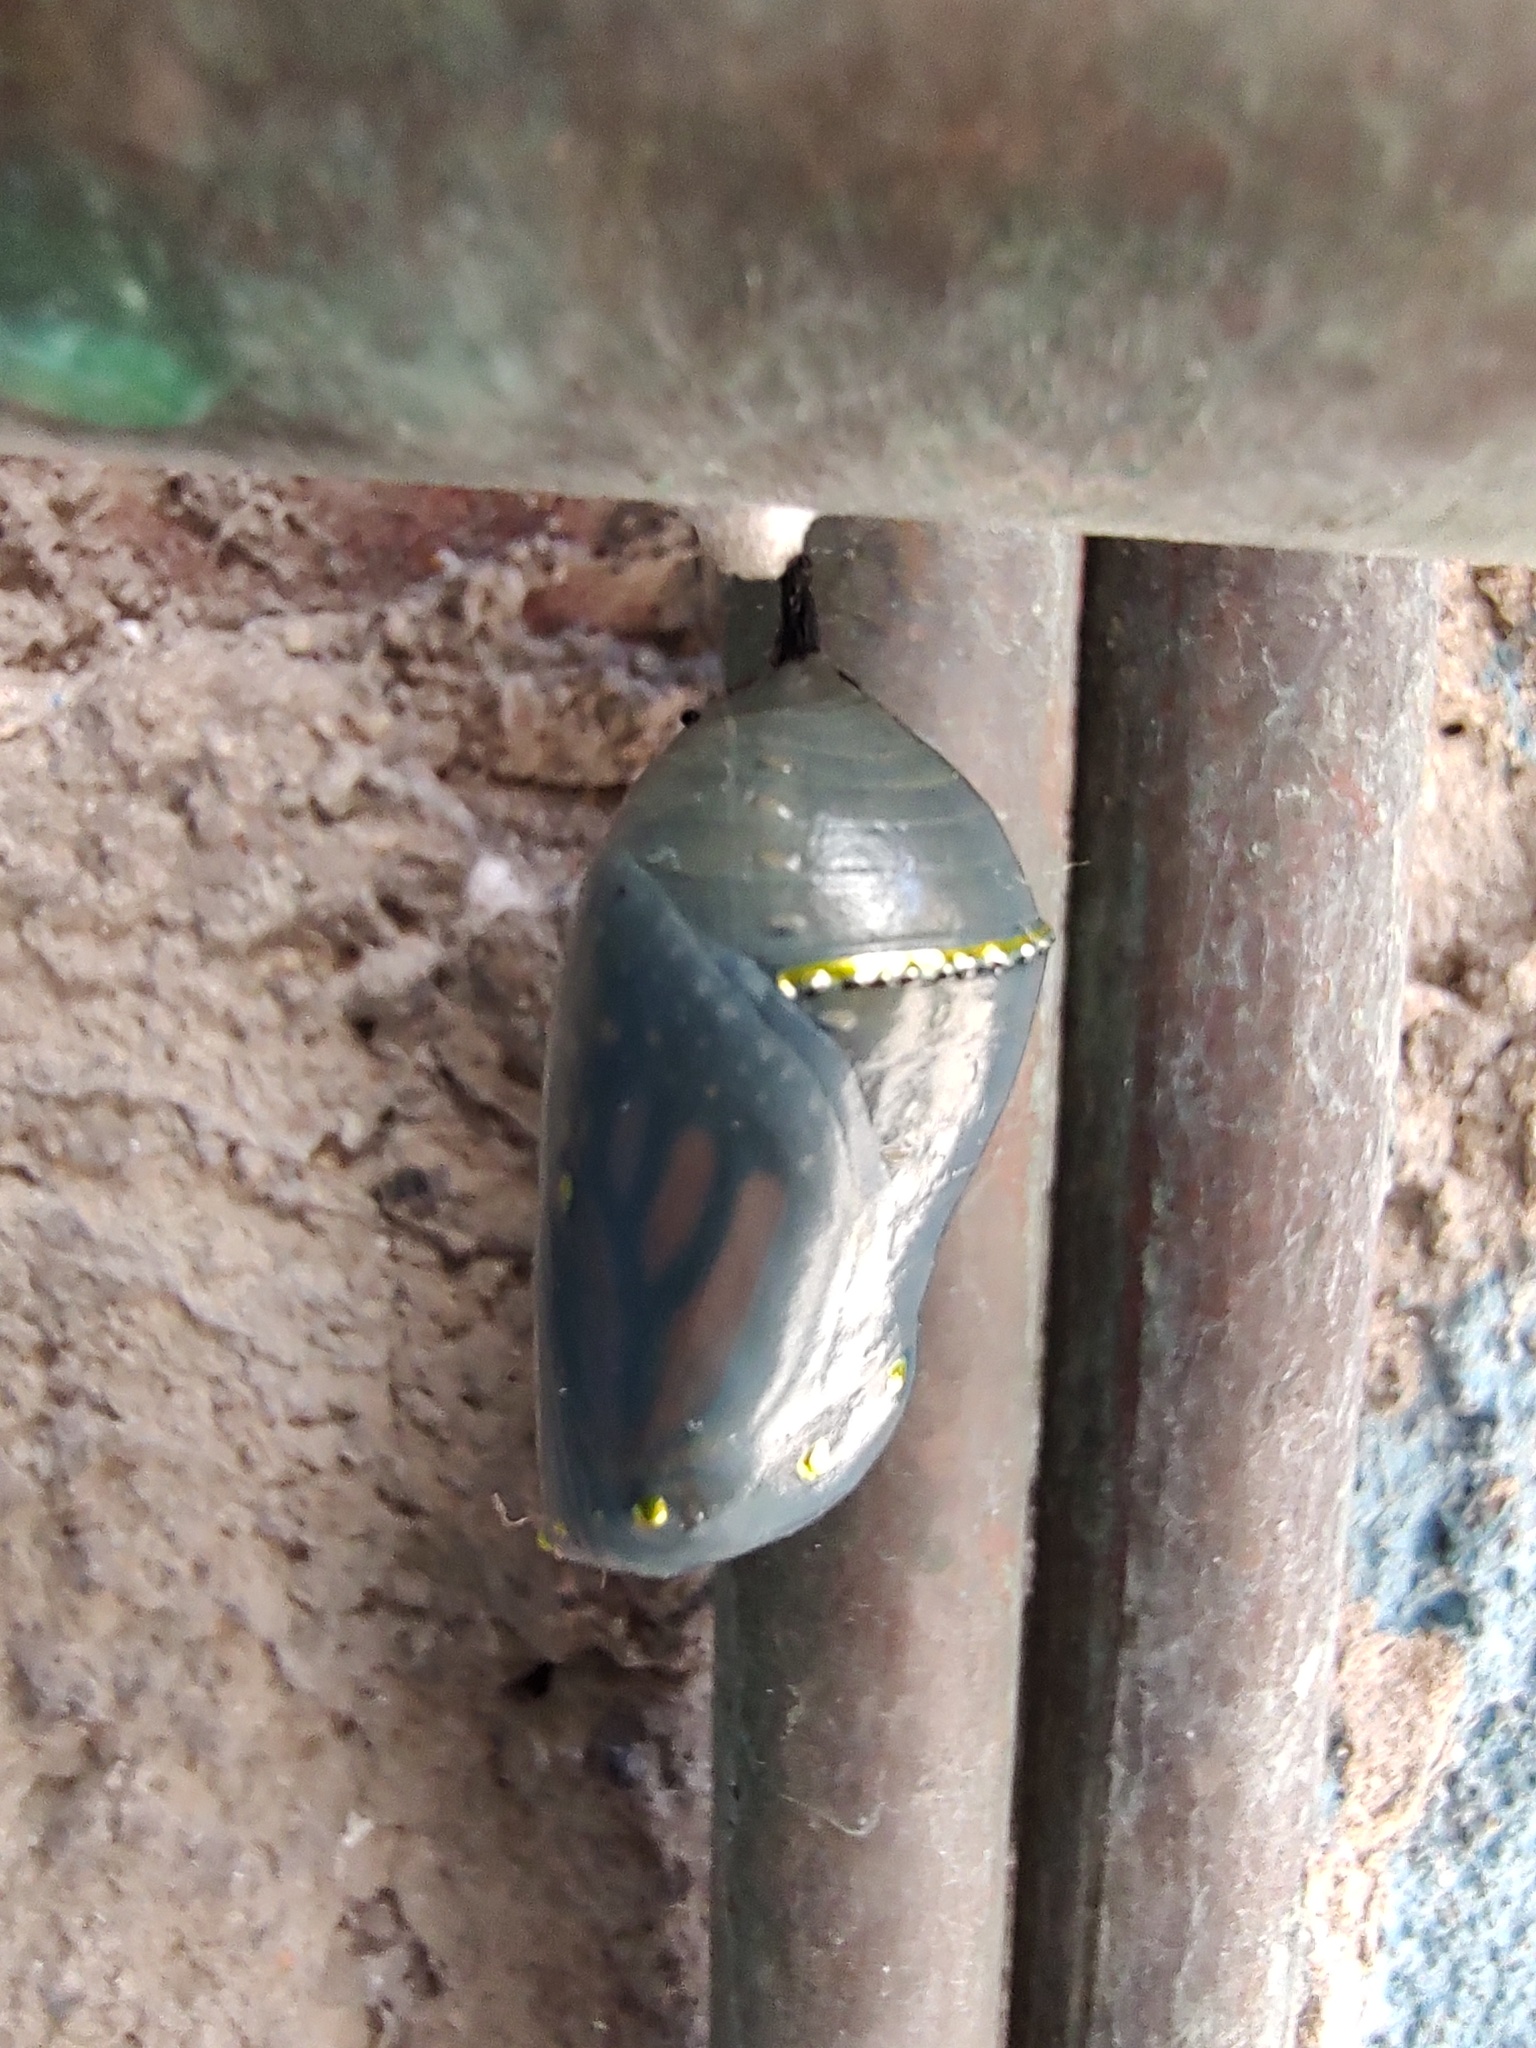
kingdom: Animalia
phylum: Arthropoda
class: Insecta
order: Lepidoptera
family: Nymphalidae
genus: Danaus
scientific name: Danaus plexippus
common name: Monarch
